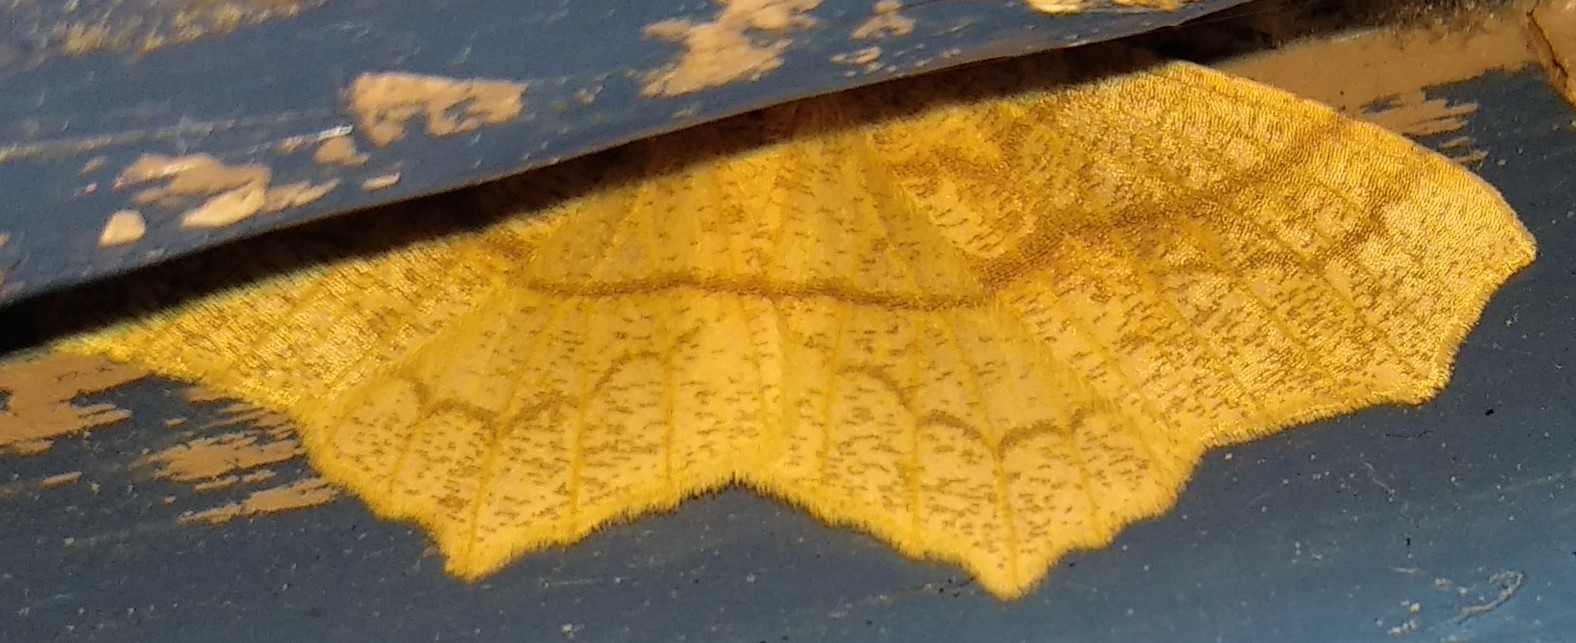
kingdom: Animalia
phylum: Arthropoda
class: Insecta
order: Lepidoptera
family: Geometridae
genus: Besma
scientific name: Besma quercivoraria
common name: Oak besma
